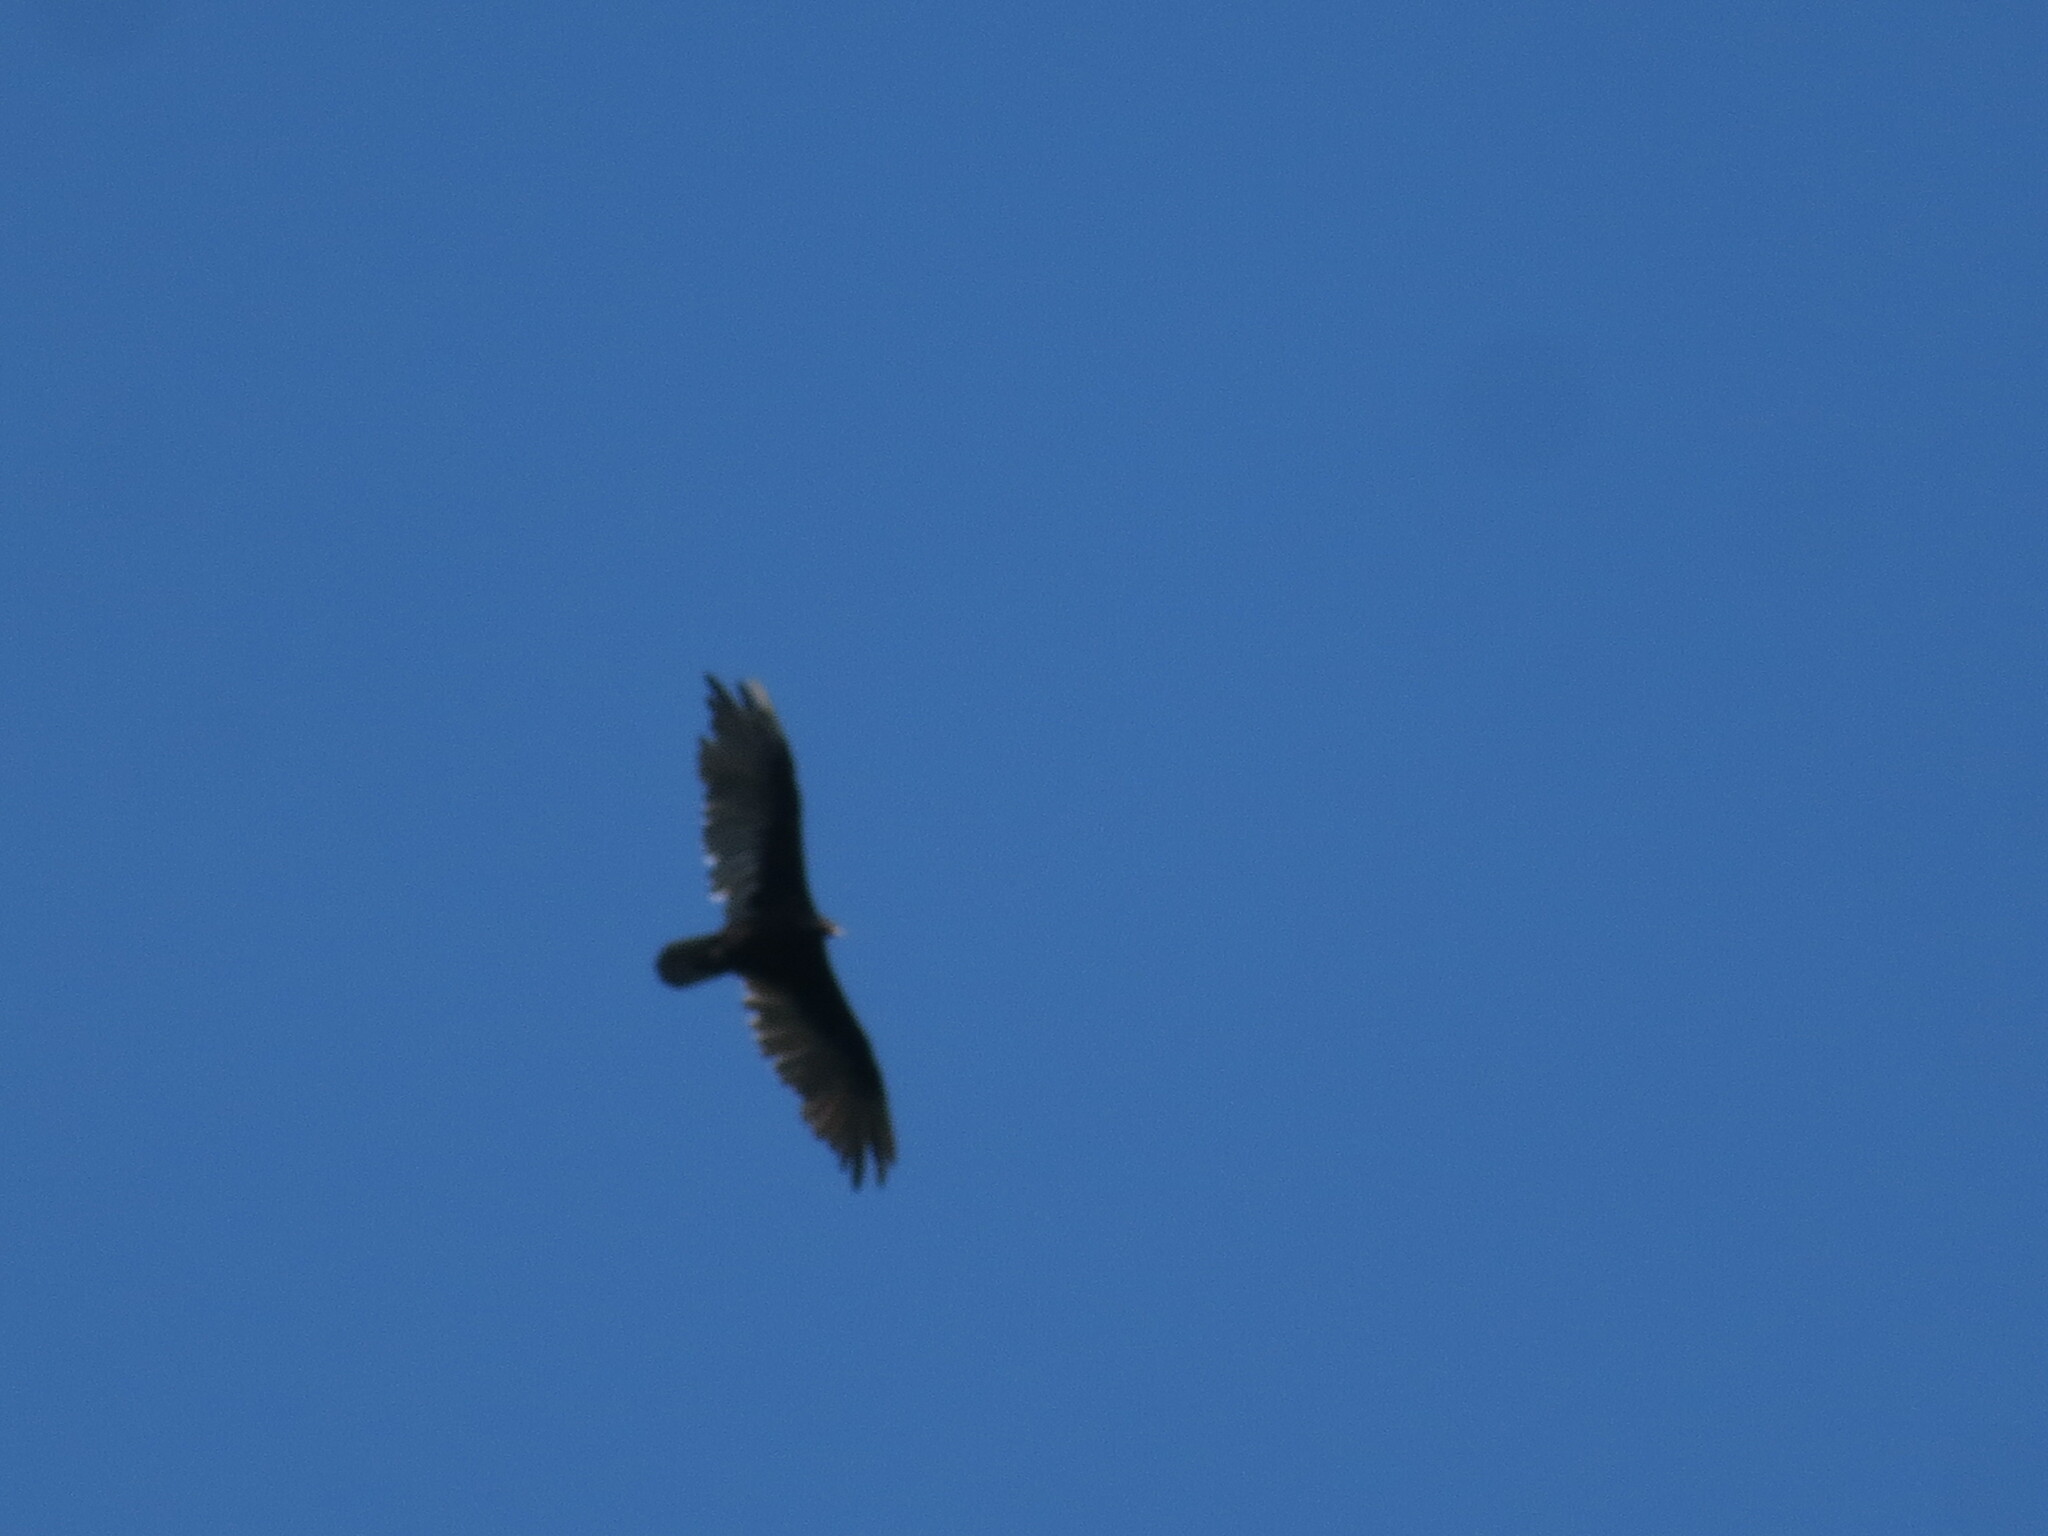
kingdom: Animalia
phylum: Chordata
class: Aves
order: Accipitriformes
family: Cathartidae
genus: Cathartes
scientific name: Cathartes aura
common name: Turkey vulture
